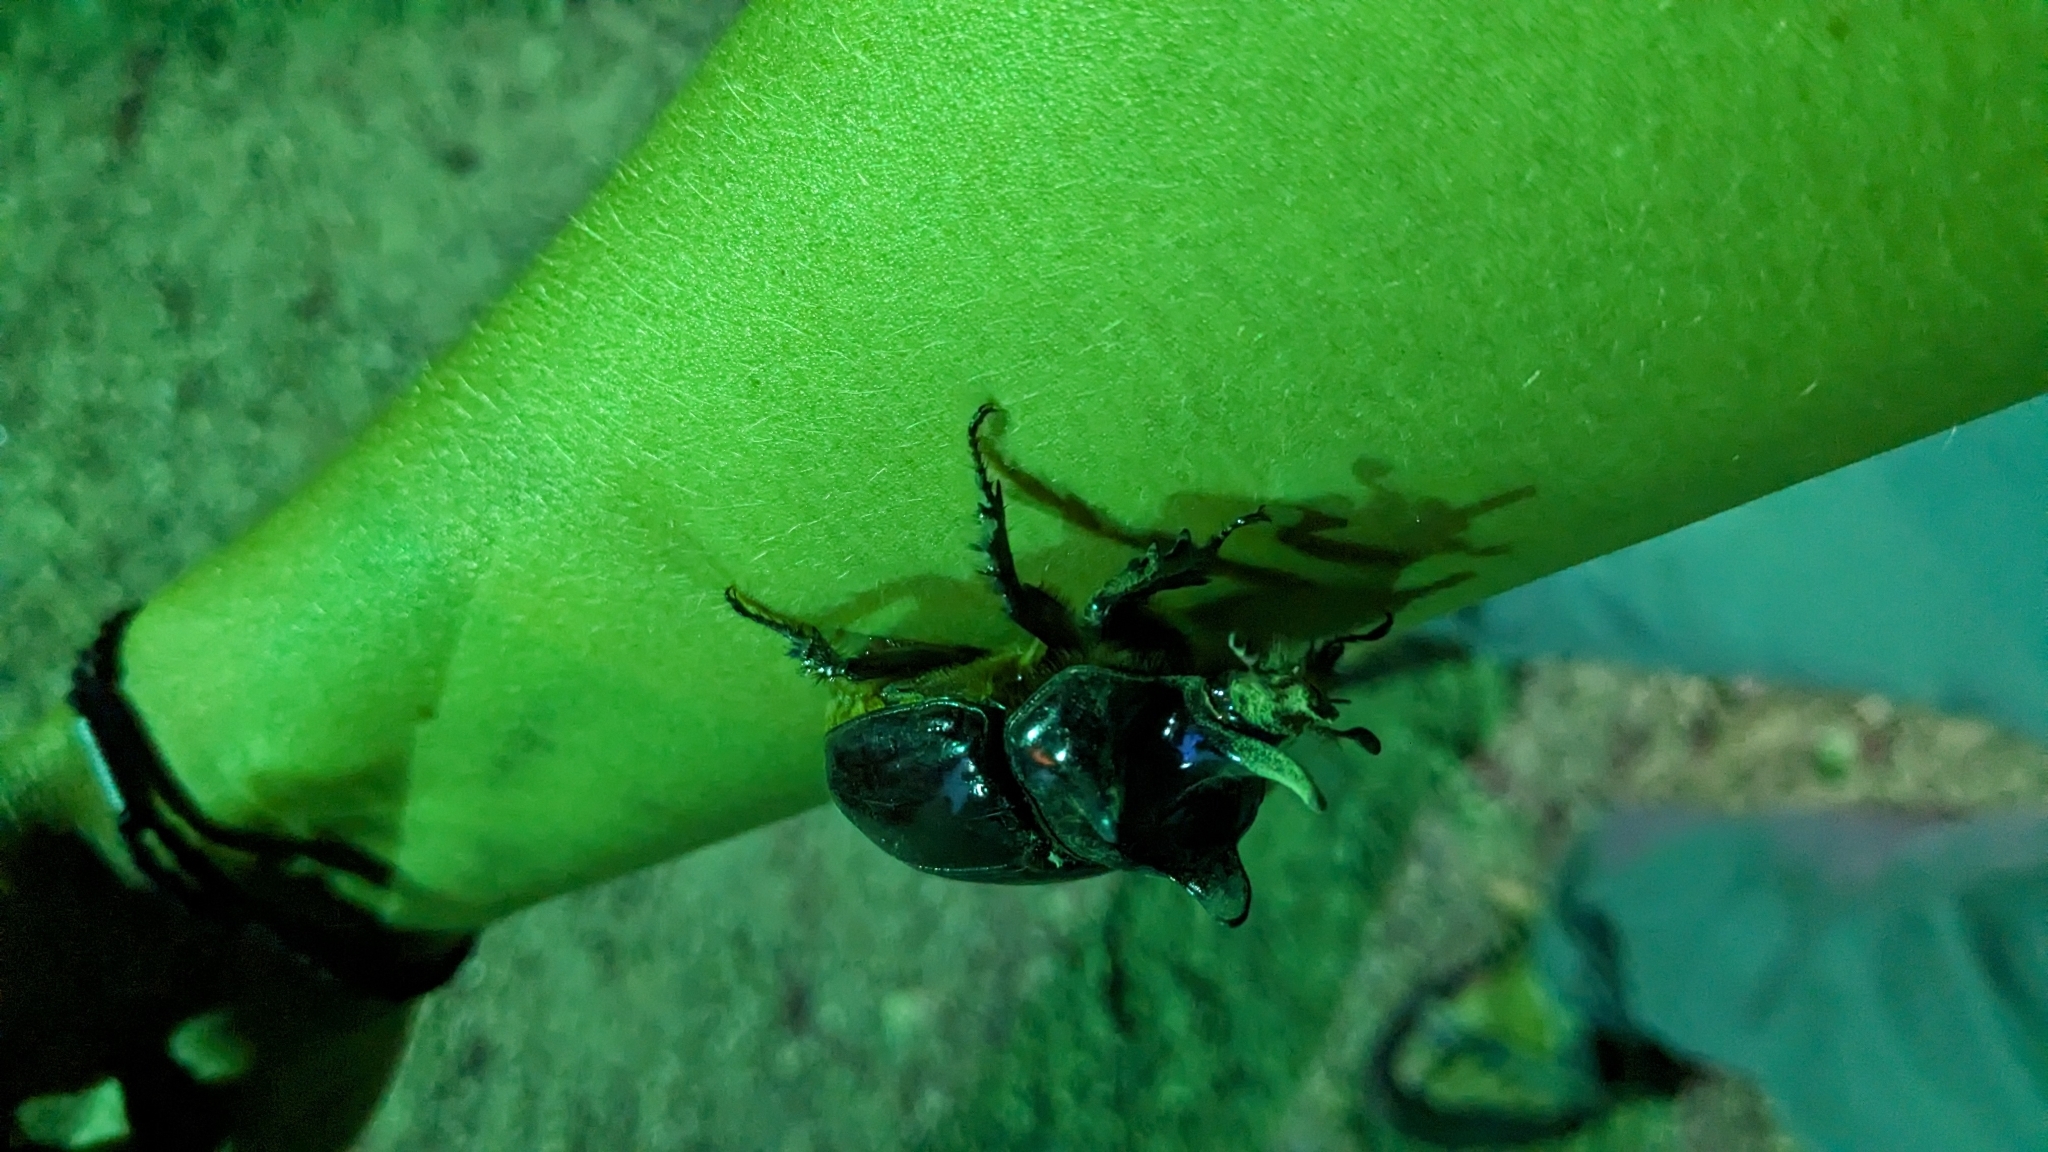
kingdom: Animalia
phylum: Arthropoda
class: Insecta
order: Coleoptera
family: Scarabaeidae
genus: Strategus
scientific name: Strategus aloeus
